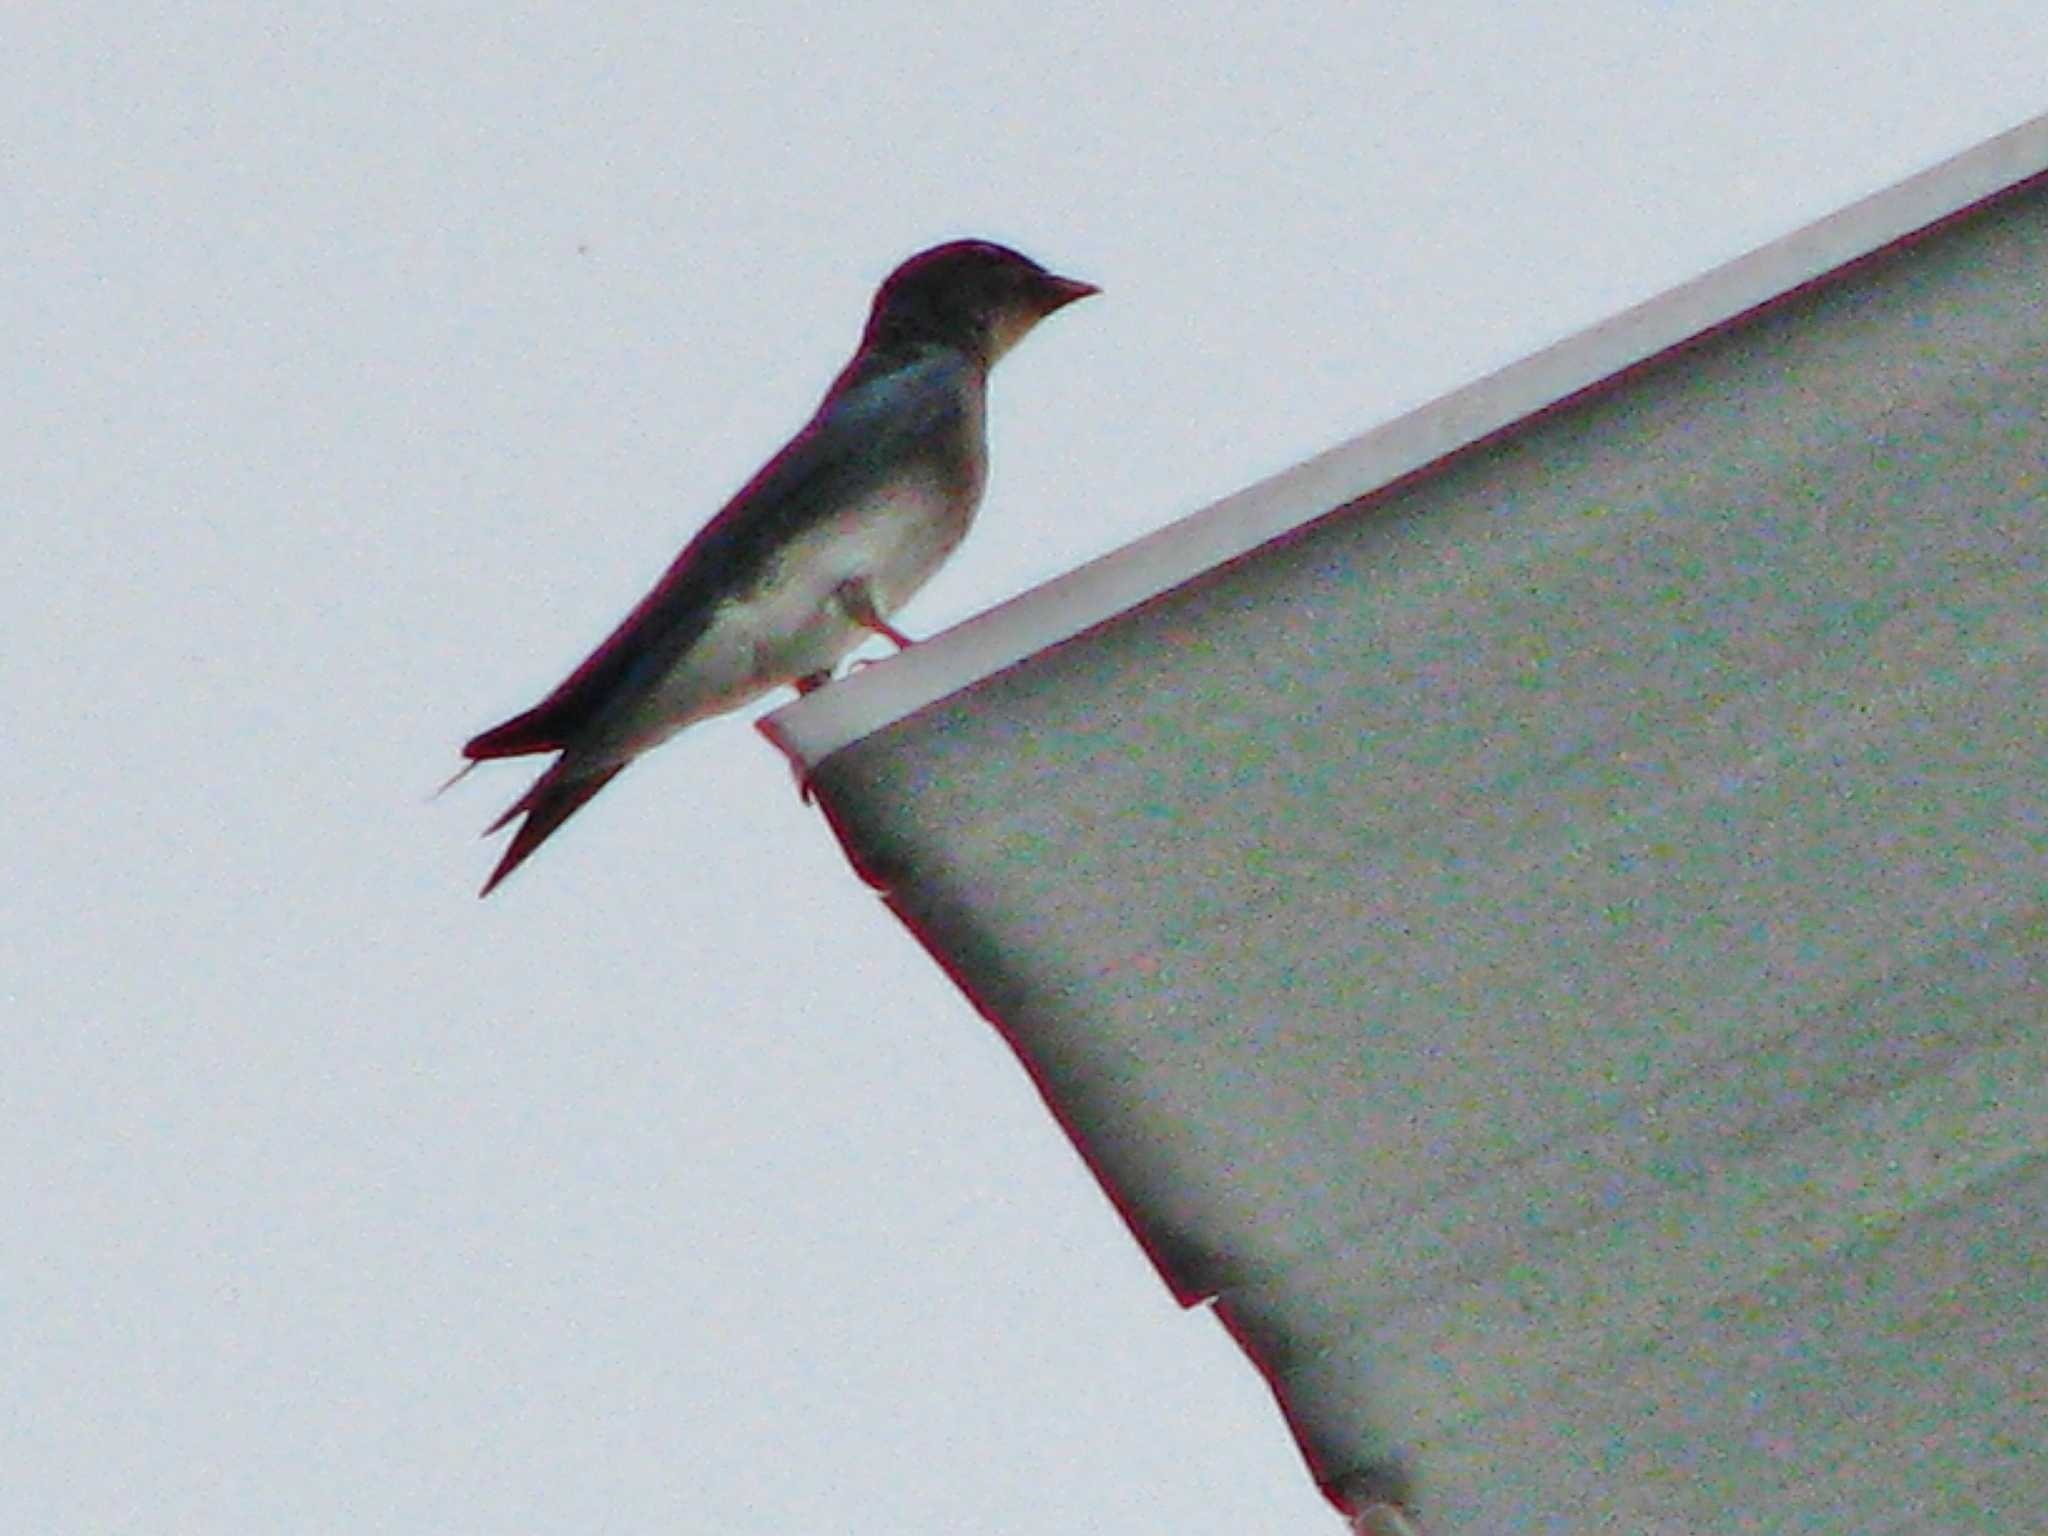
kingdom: Animalia
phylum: Chordata
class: Aves
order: Passeriformes
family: Hirundinidae
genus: Progne
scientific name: Progne chalybea
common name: Grey-breasted martin
